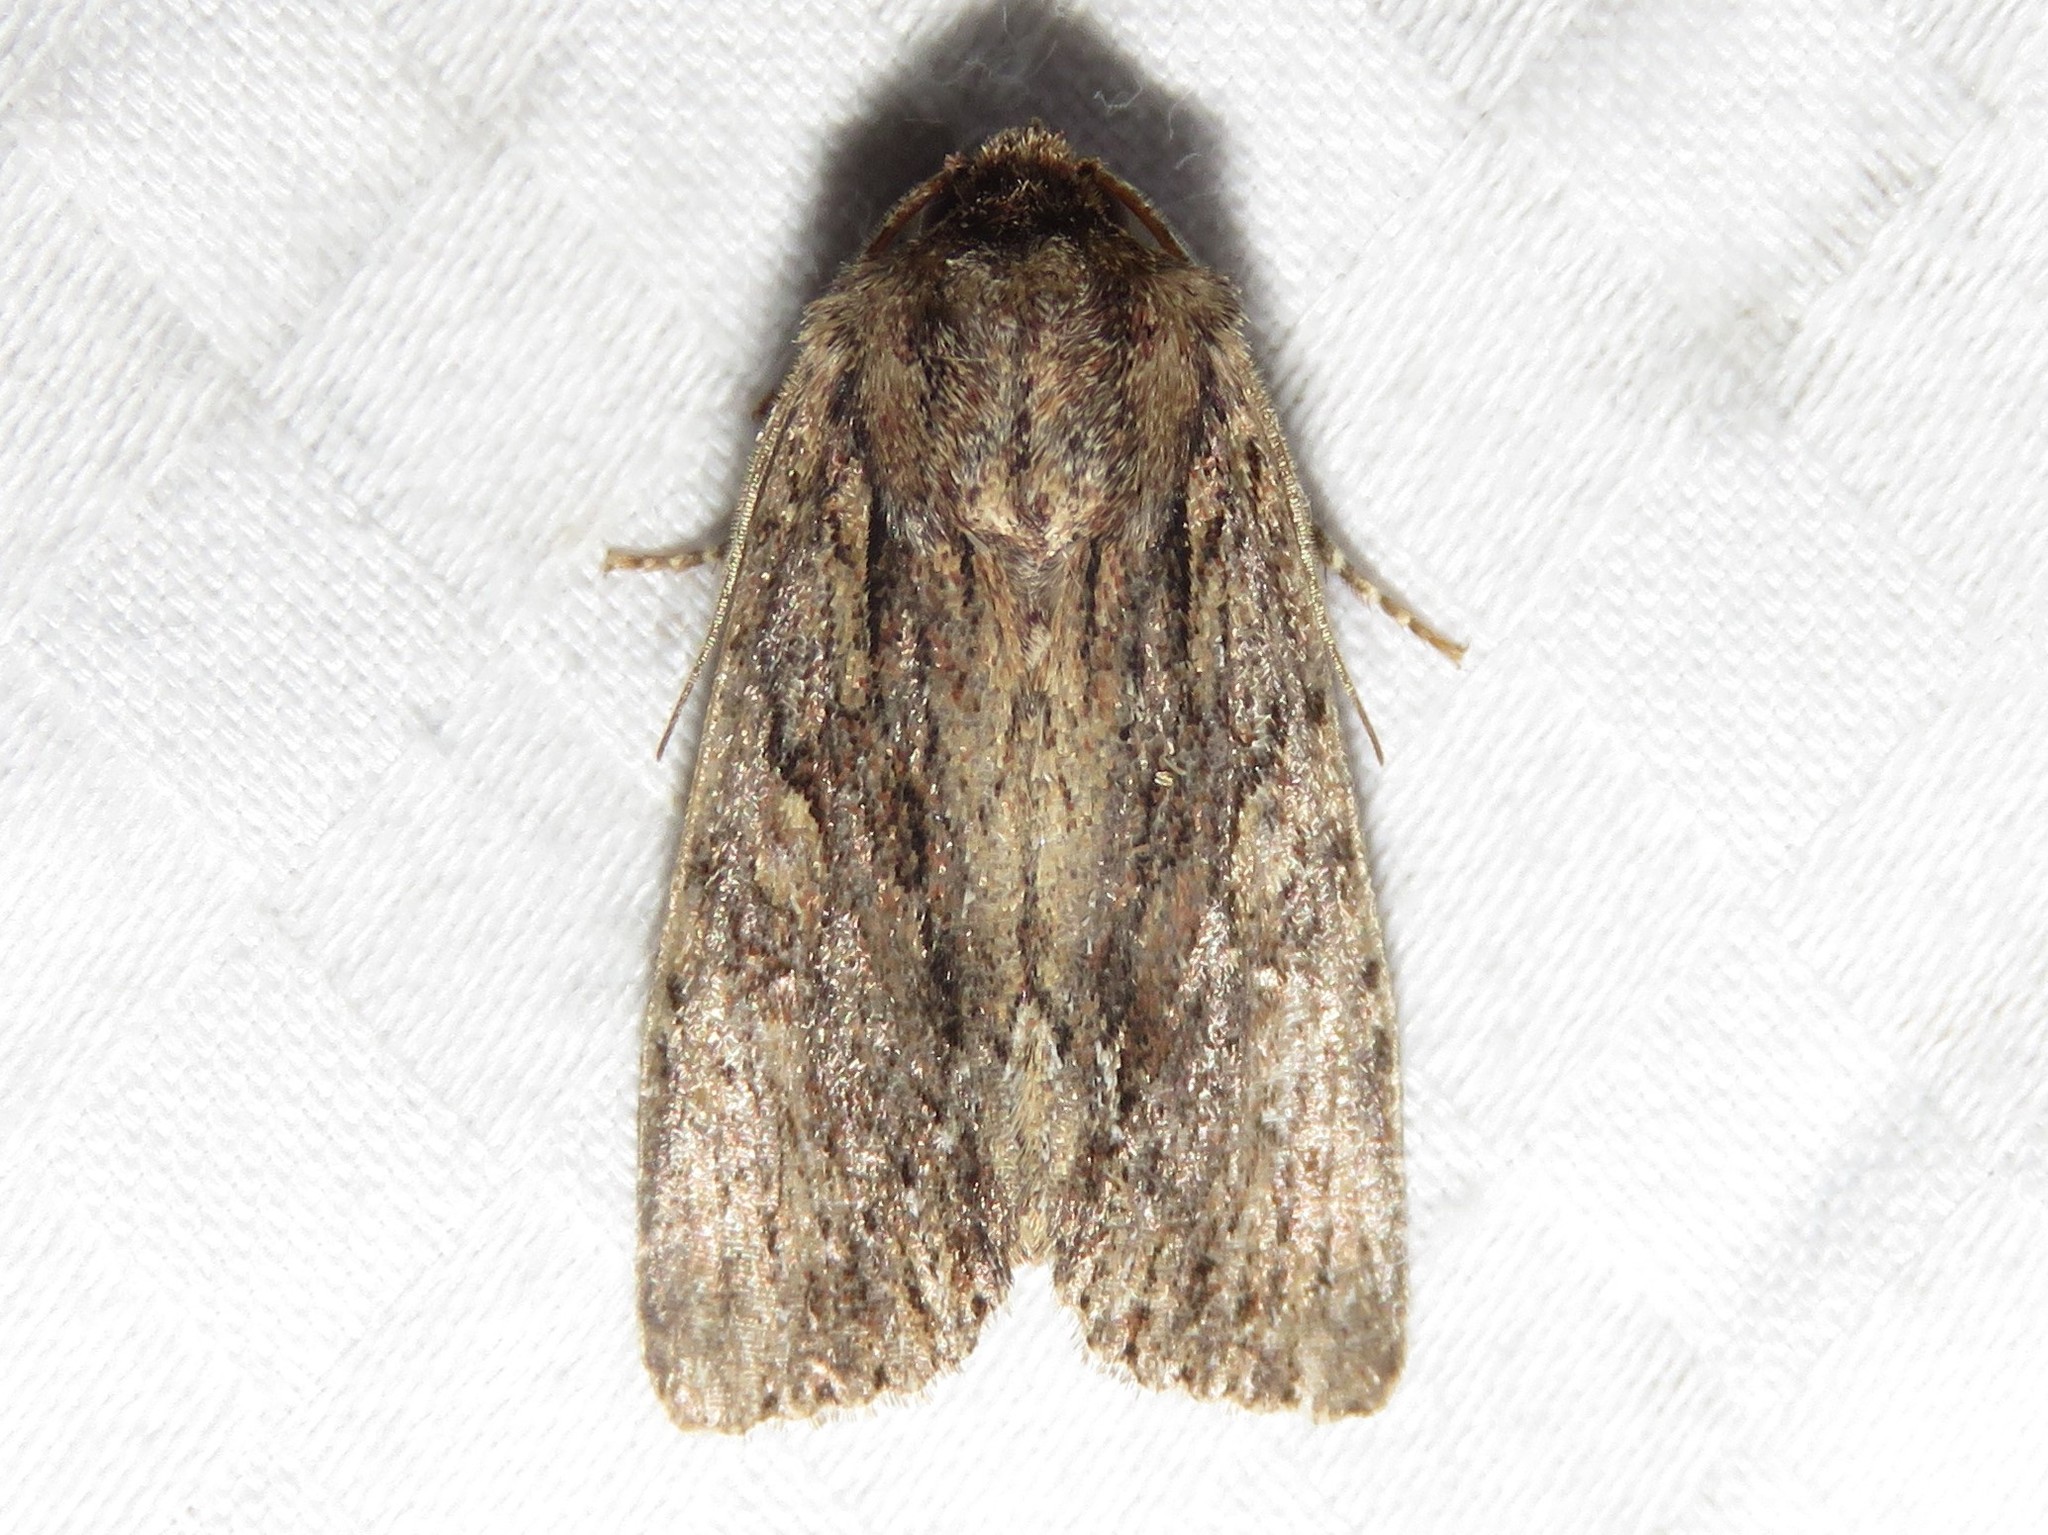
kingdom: Animalia
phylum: Arthropoda
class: Insecta
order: Lepidoptera
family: Noctuidae
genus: Achatia
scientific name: Achatia confusa
